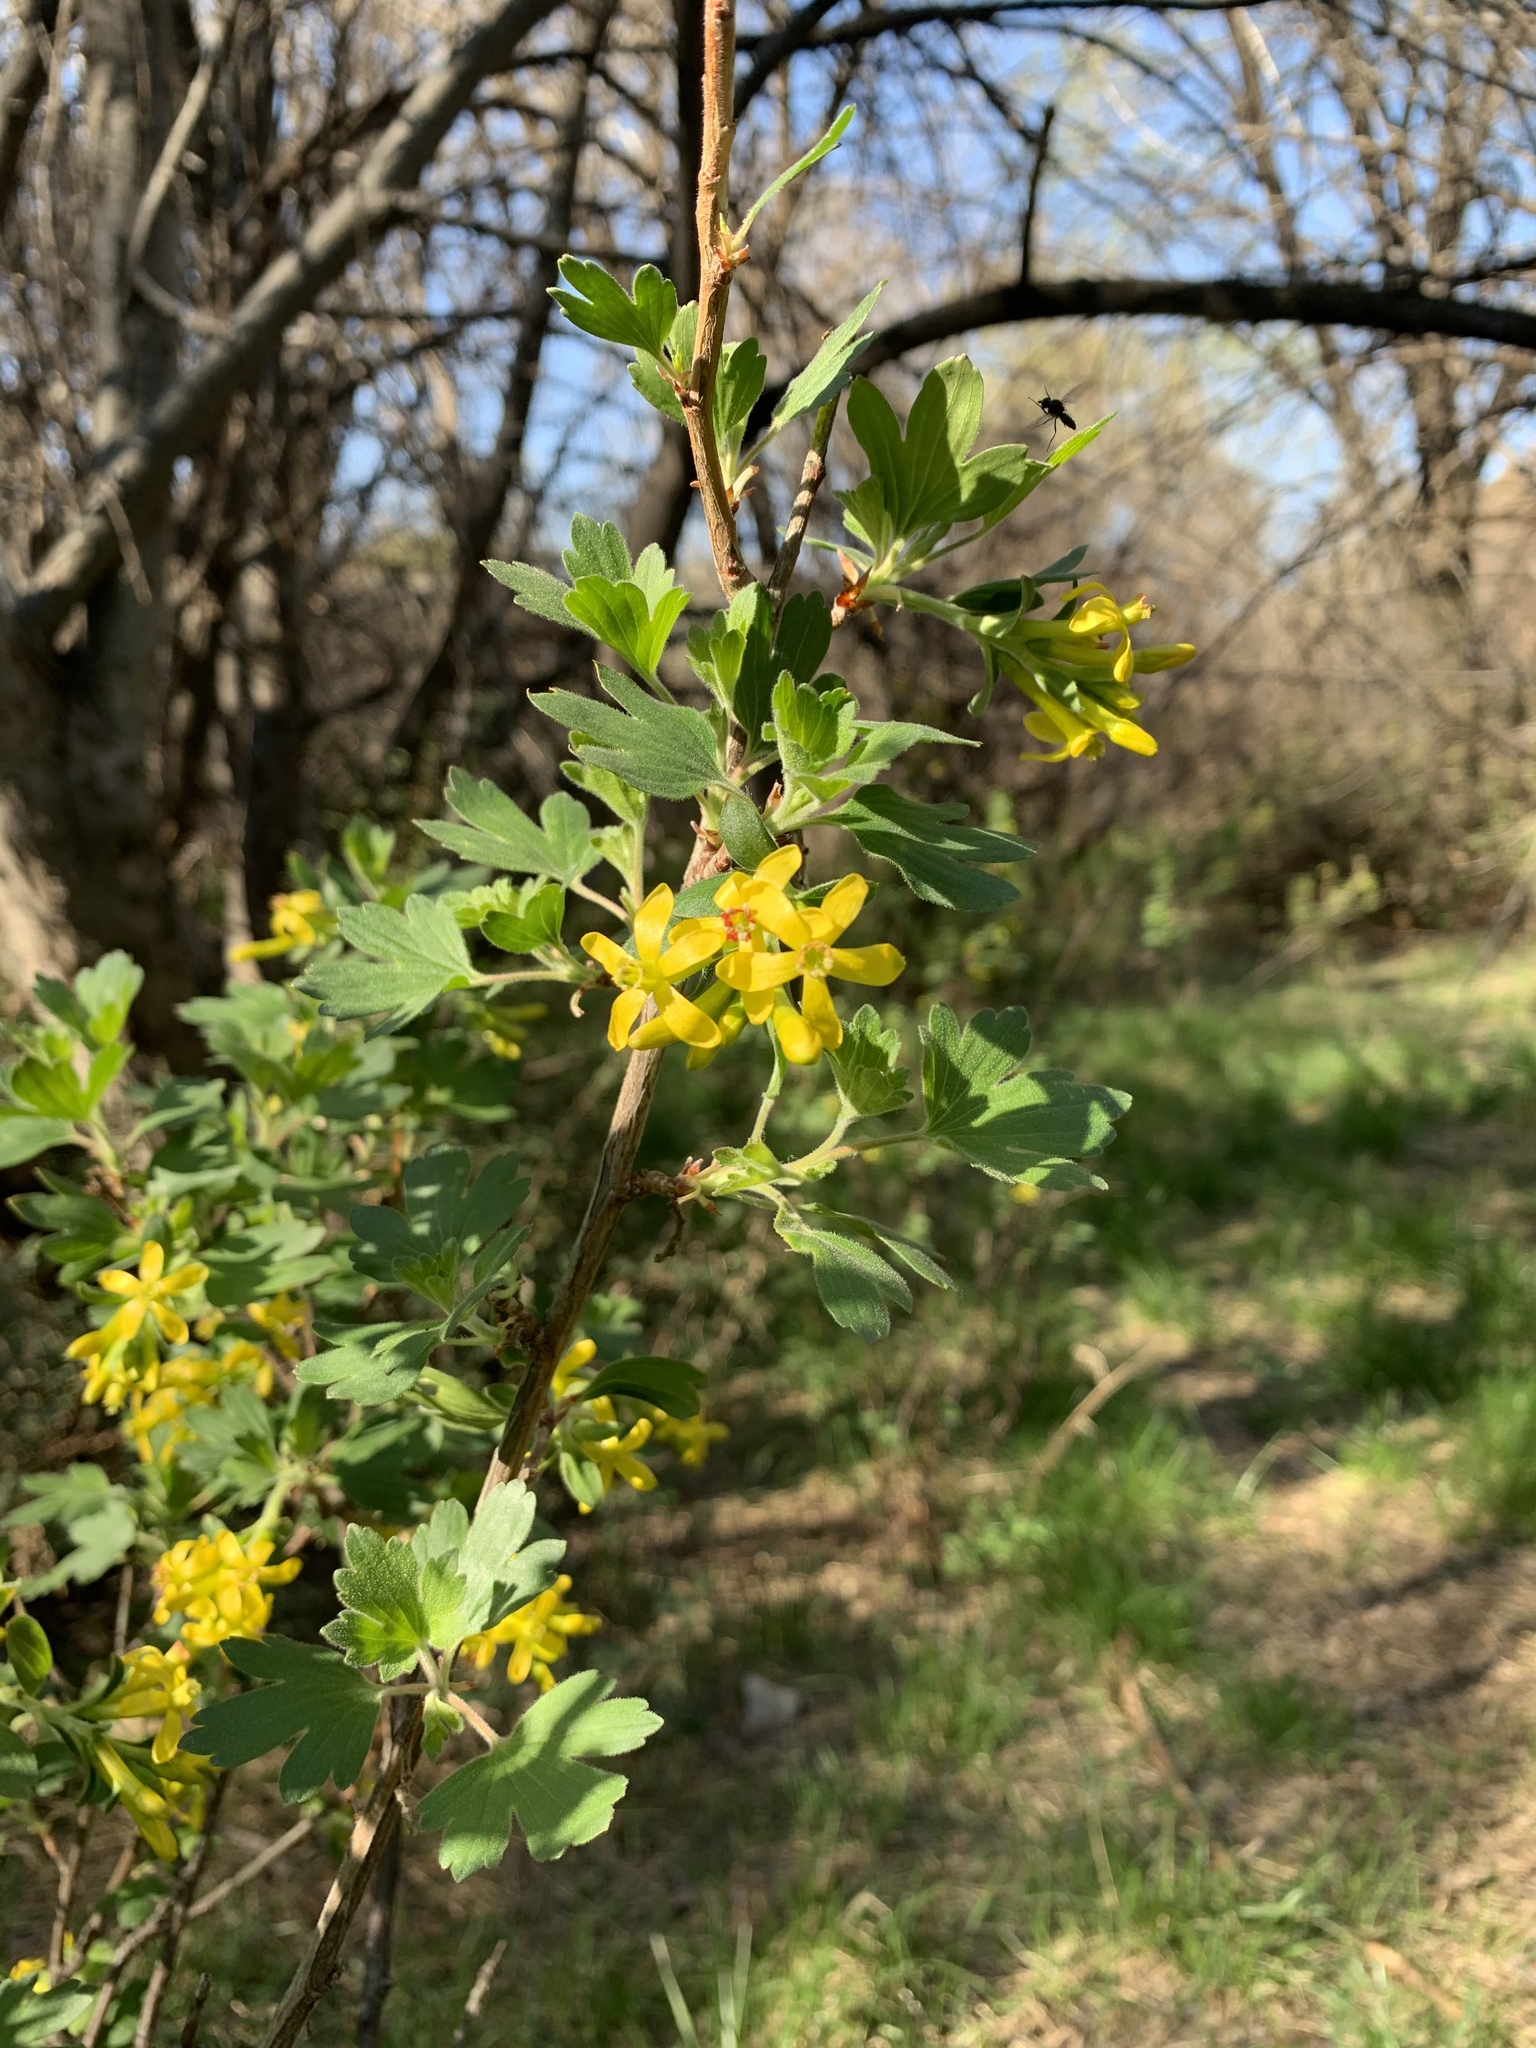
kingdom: Plantae
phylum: Tracheophyta
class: Magnoliopsida
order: Saxifragales
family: Grossulariaceae
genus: Ribes
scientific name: Ribes aureum
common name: Golden currant
